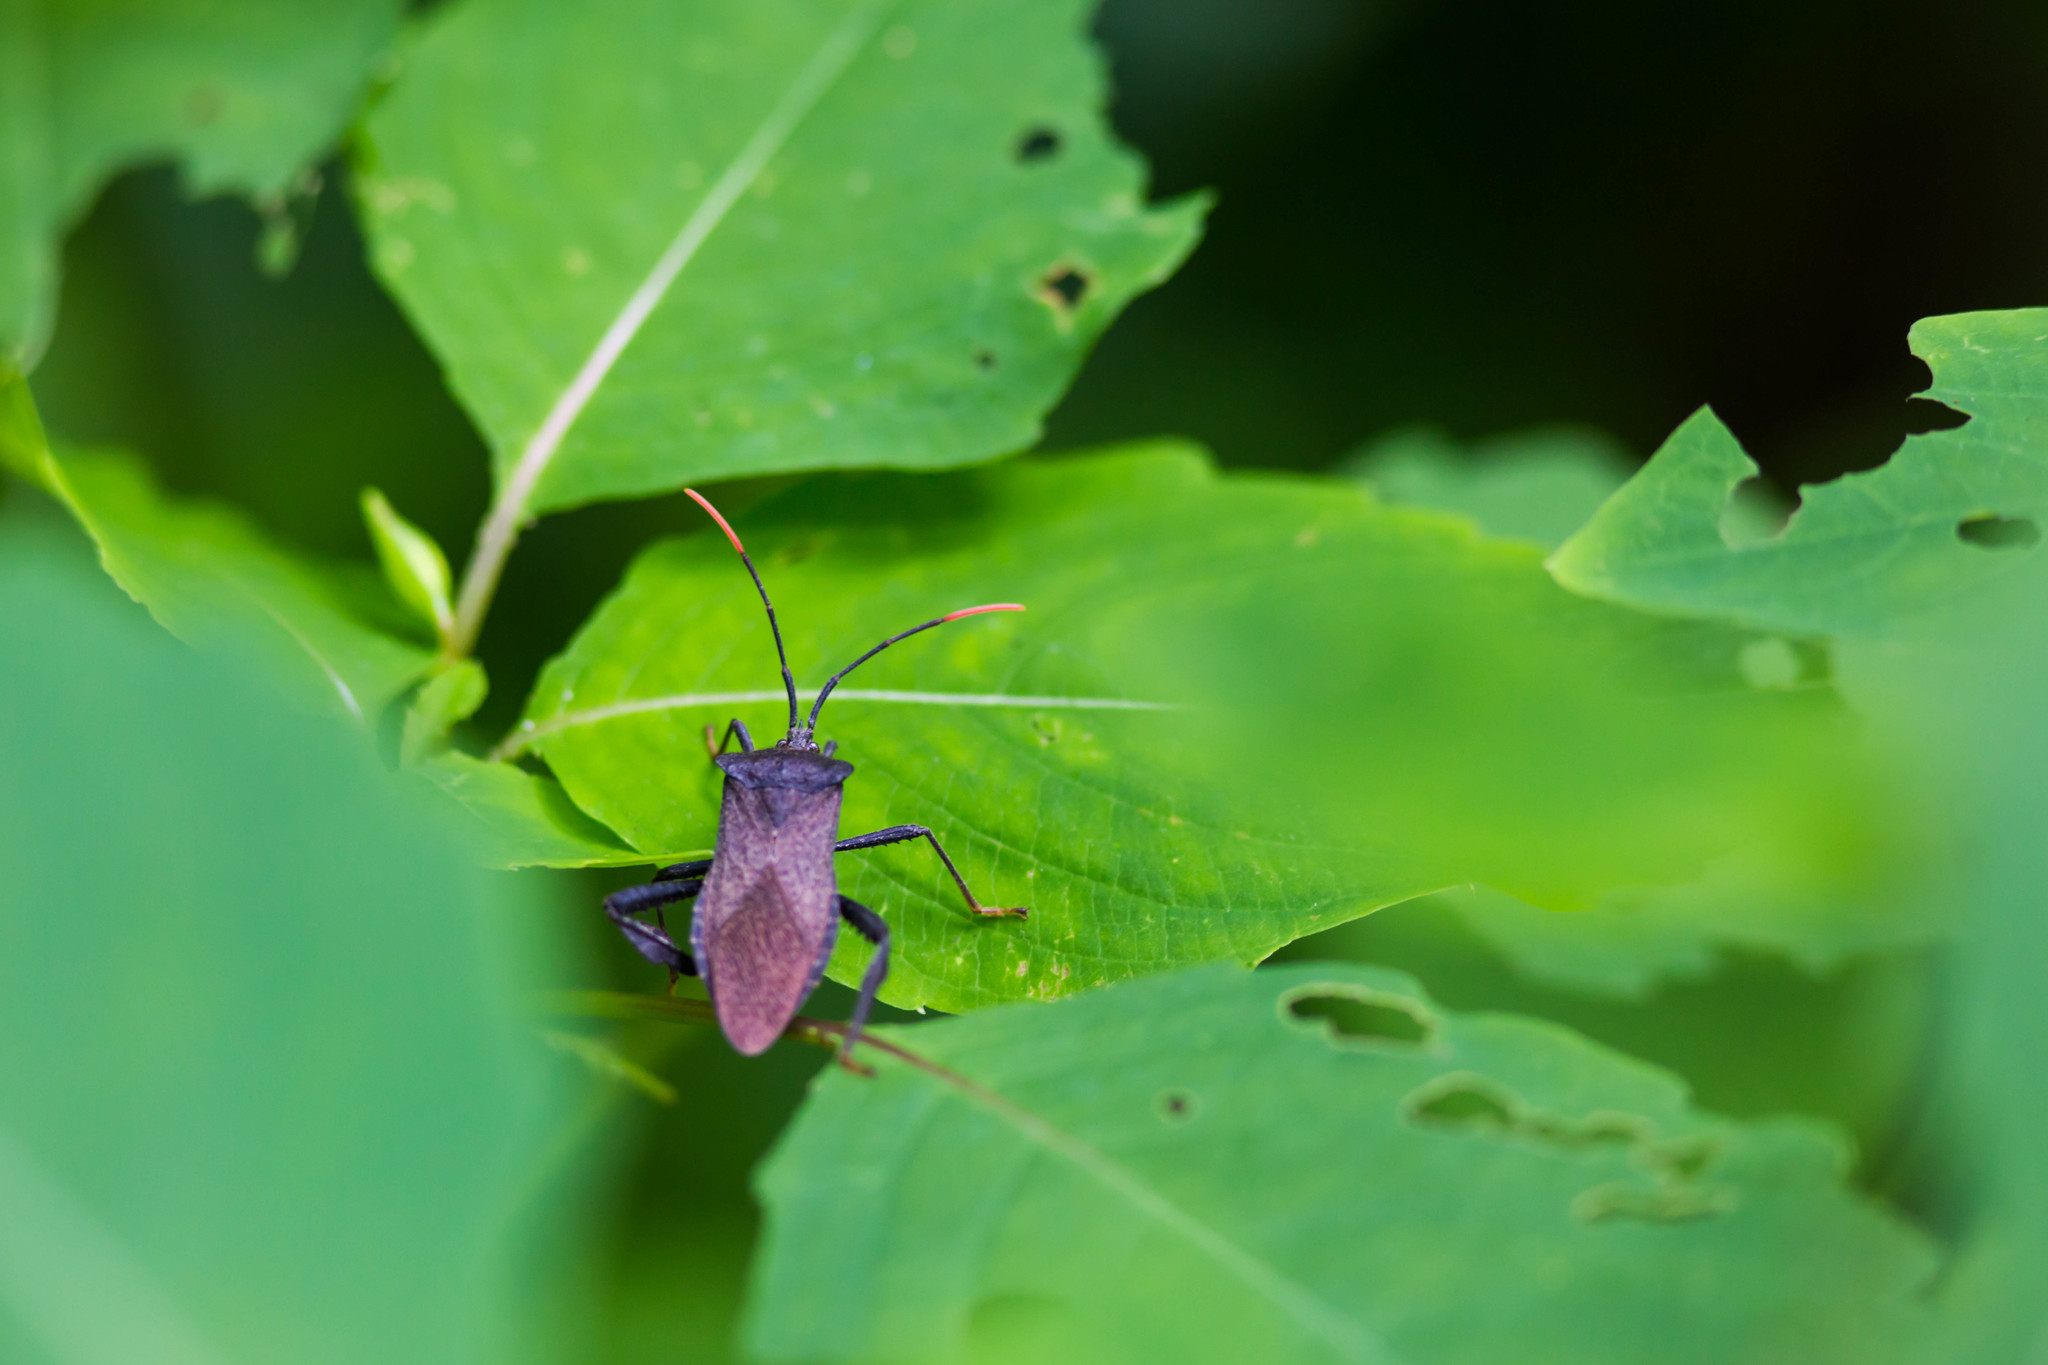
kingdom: Animalia
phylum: Arthropoda
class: Insecta
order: Hemiptera
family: Coreidae
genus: Acanthocephala
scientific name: Acanthocephala terminalis
